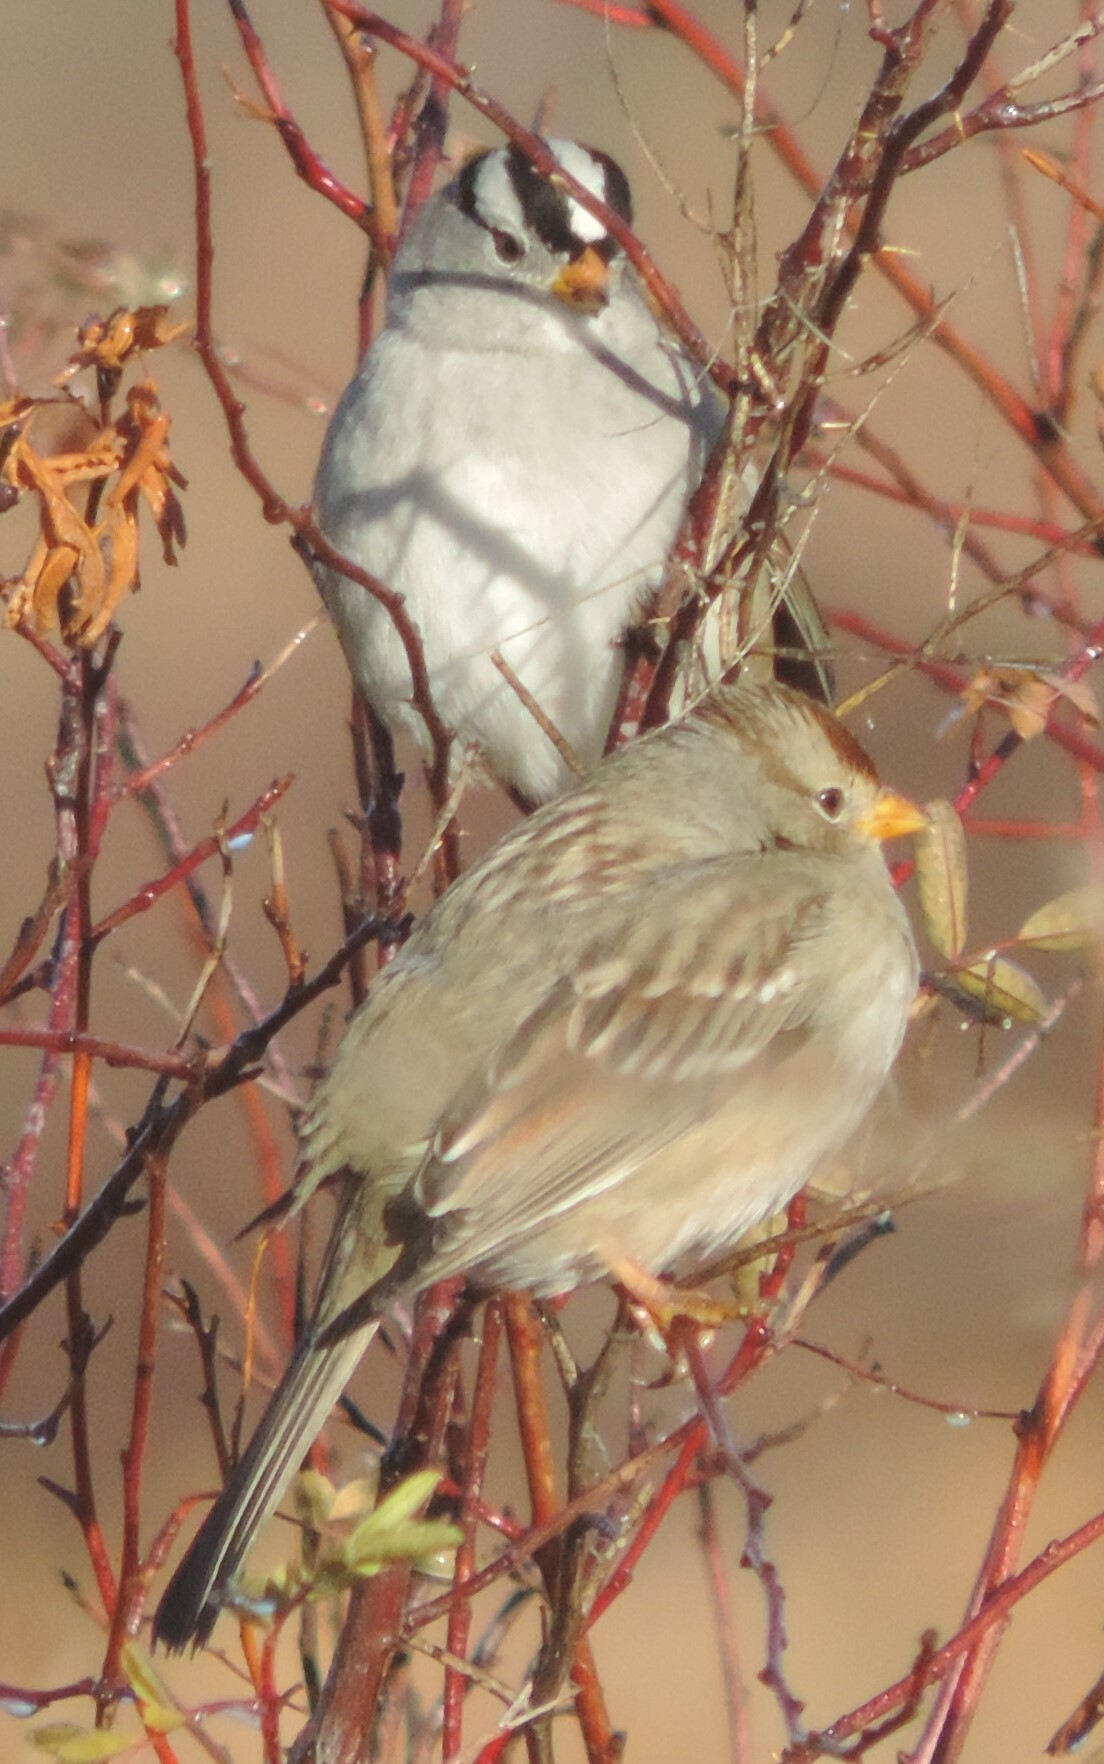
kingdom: Animalia
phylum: Chordata
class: Aves
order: Passeriformes
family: Passerellidae
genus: Zonotrichia
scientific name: Zonotrichia leucophrys
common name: White-crowned sparrow
